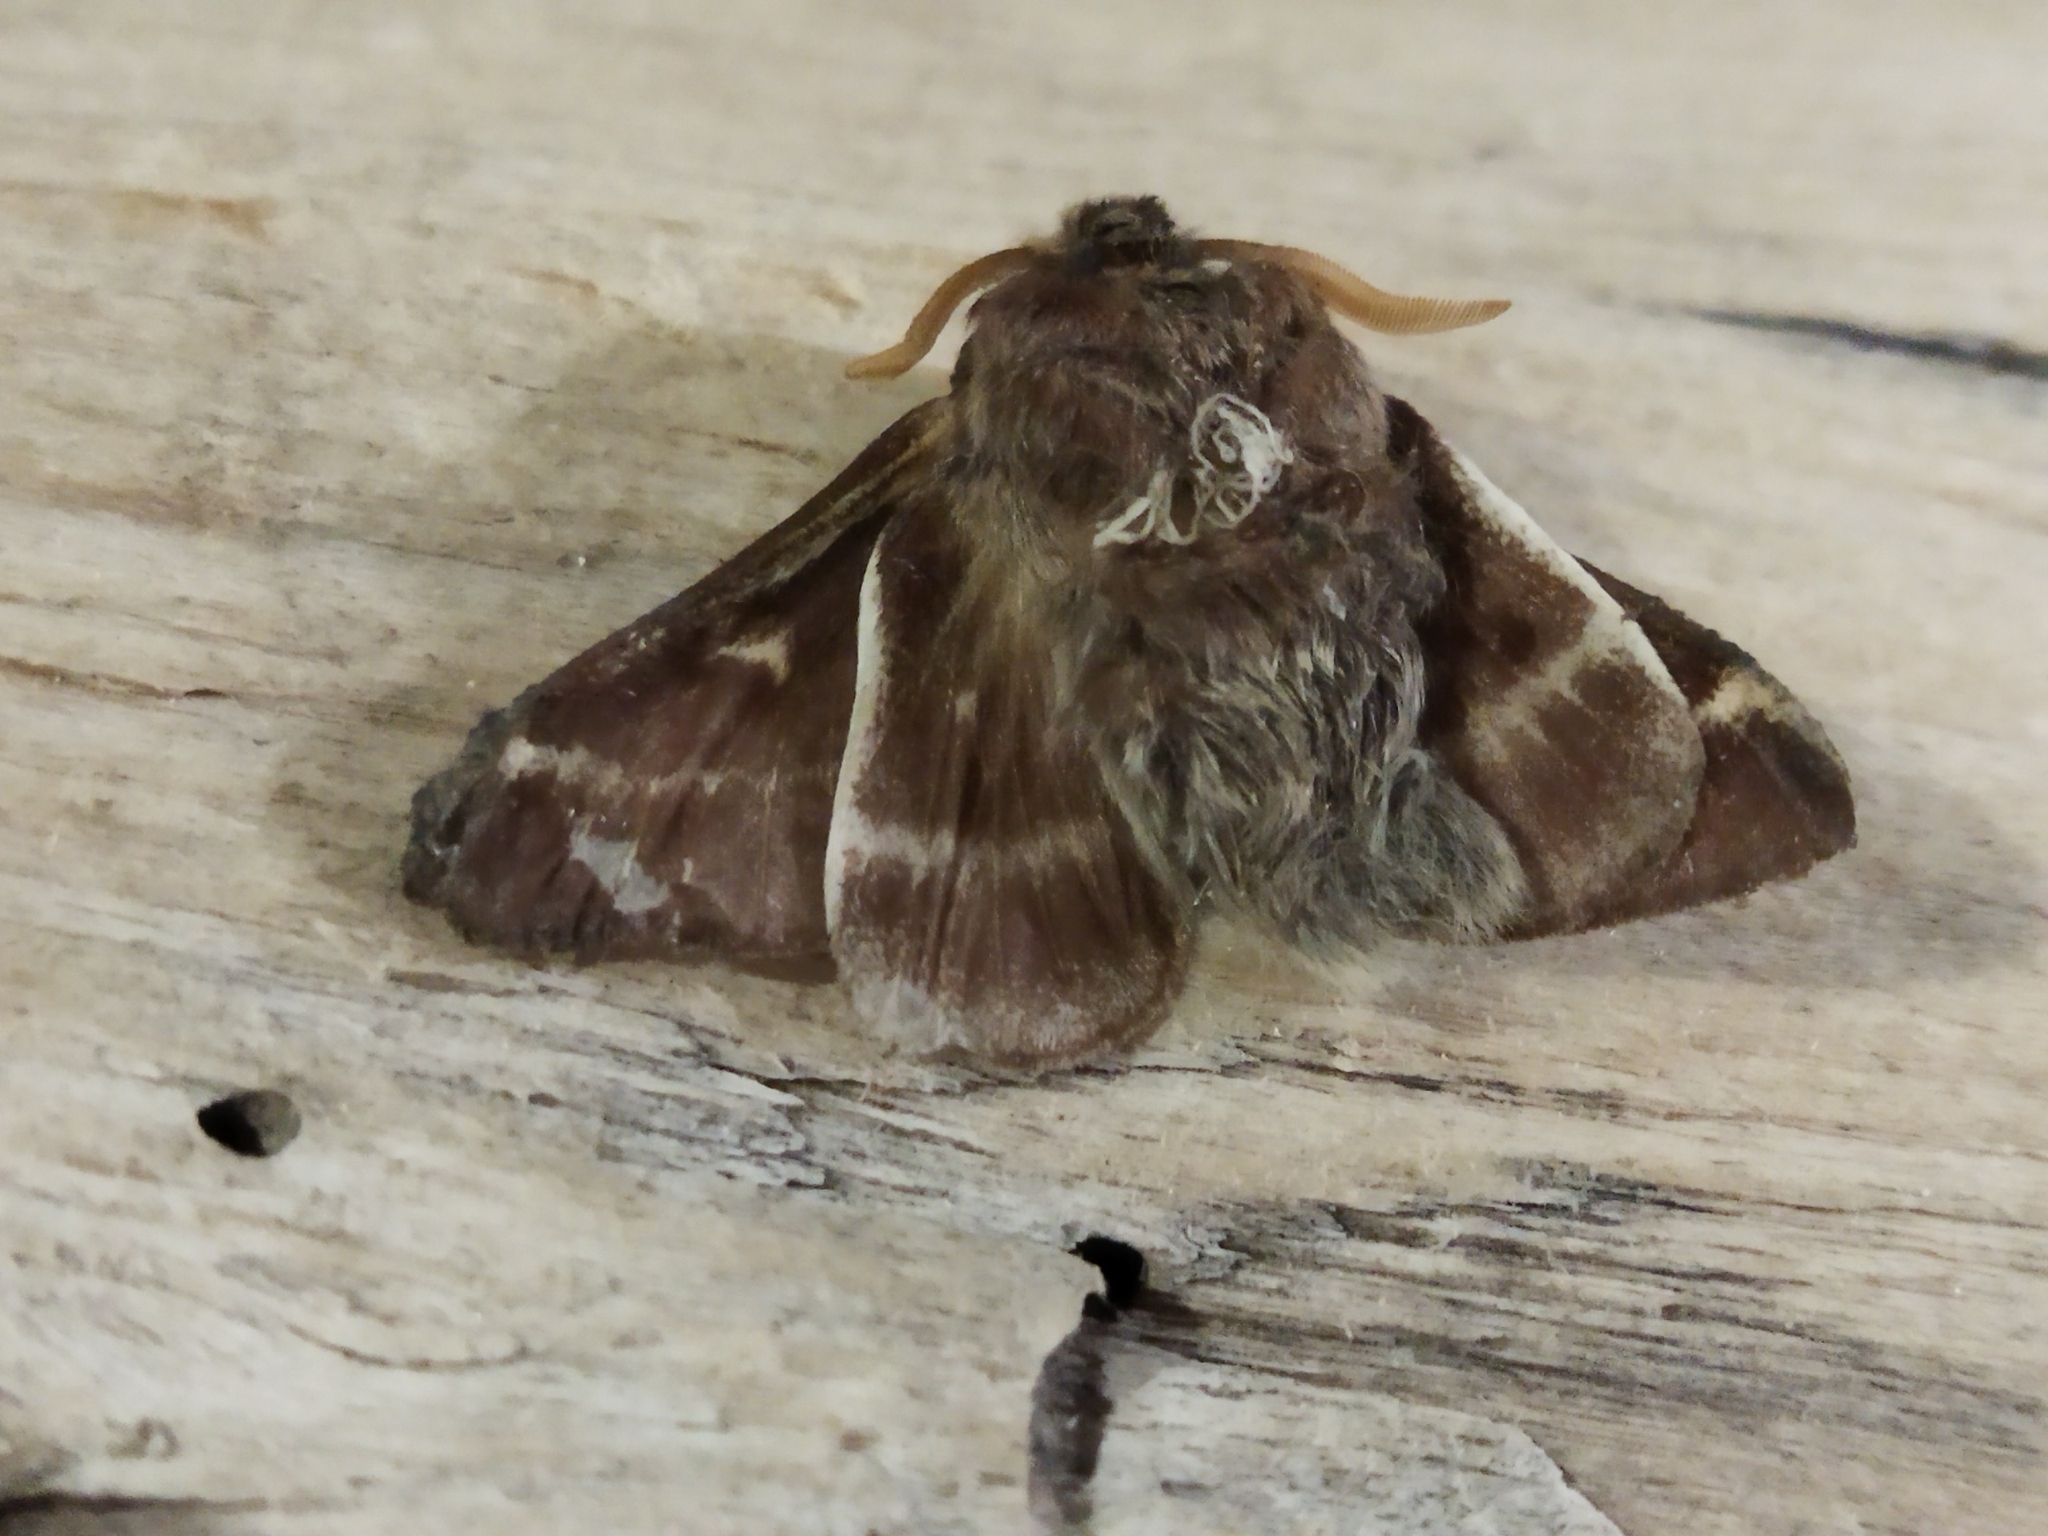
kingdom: Animalia
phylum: Arthropoda
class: Insecta
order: Lepidoptera
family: Lasiocampidae
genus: Eriogaster
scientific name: Eriogaster lanestris
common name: Small eggar
